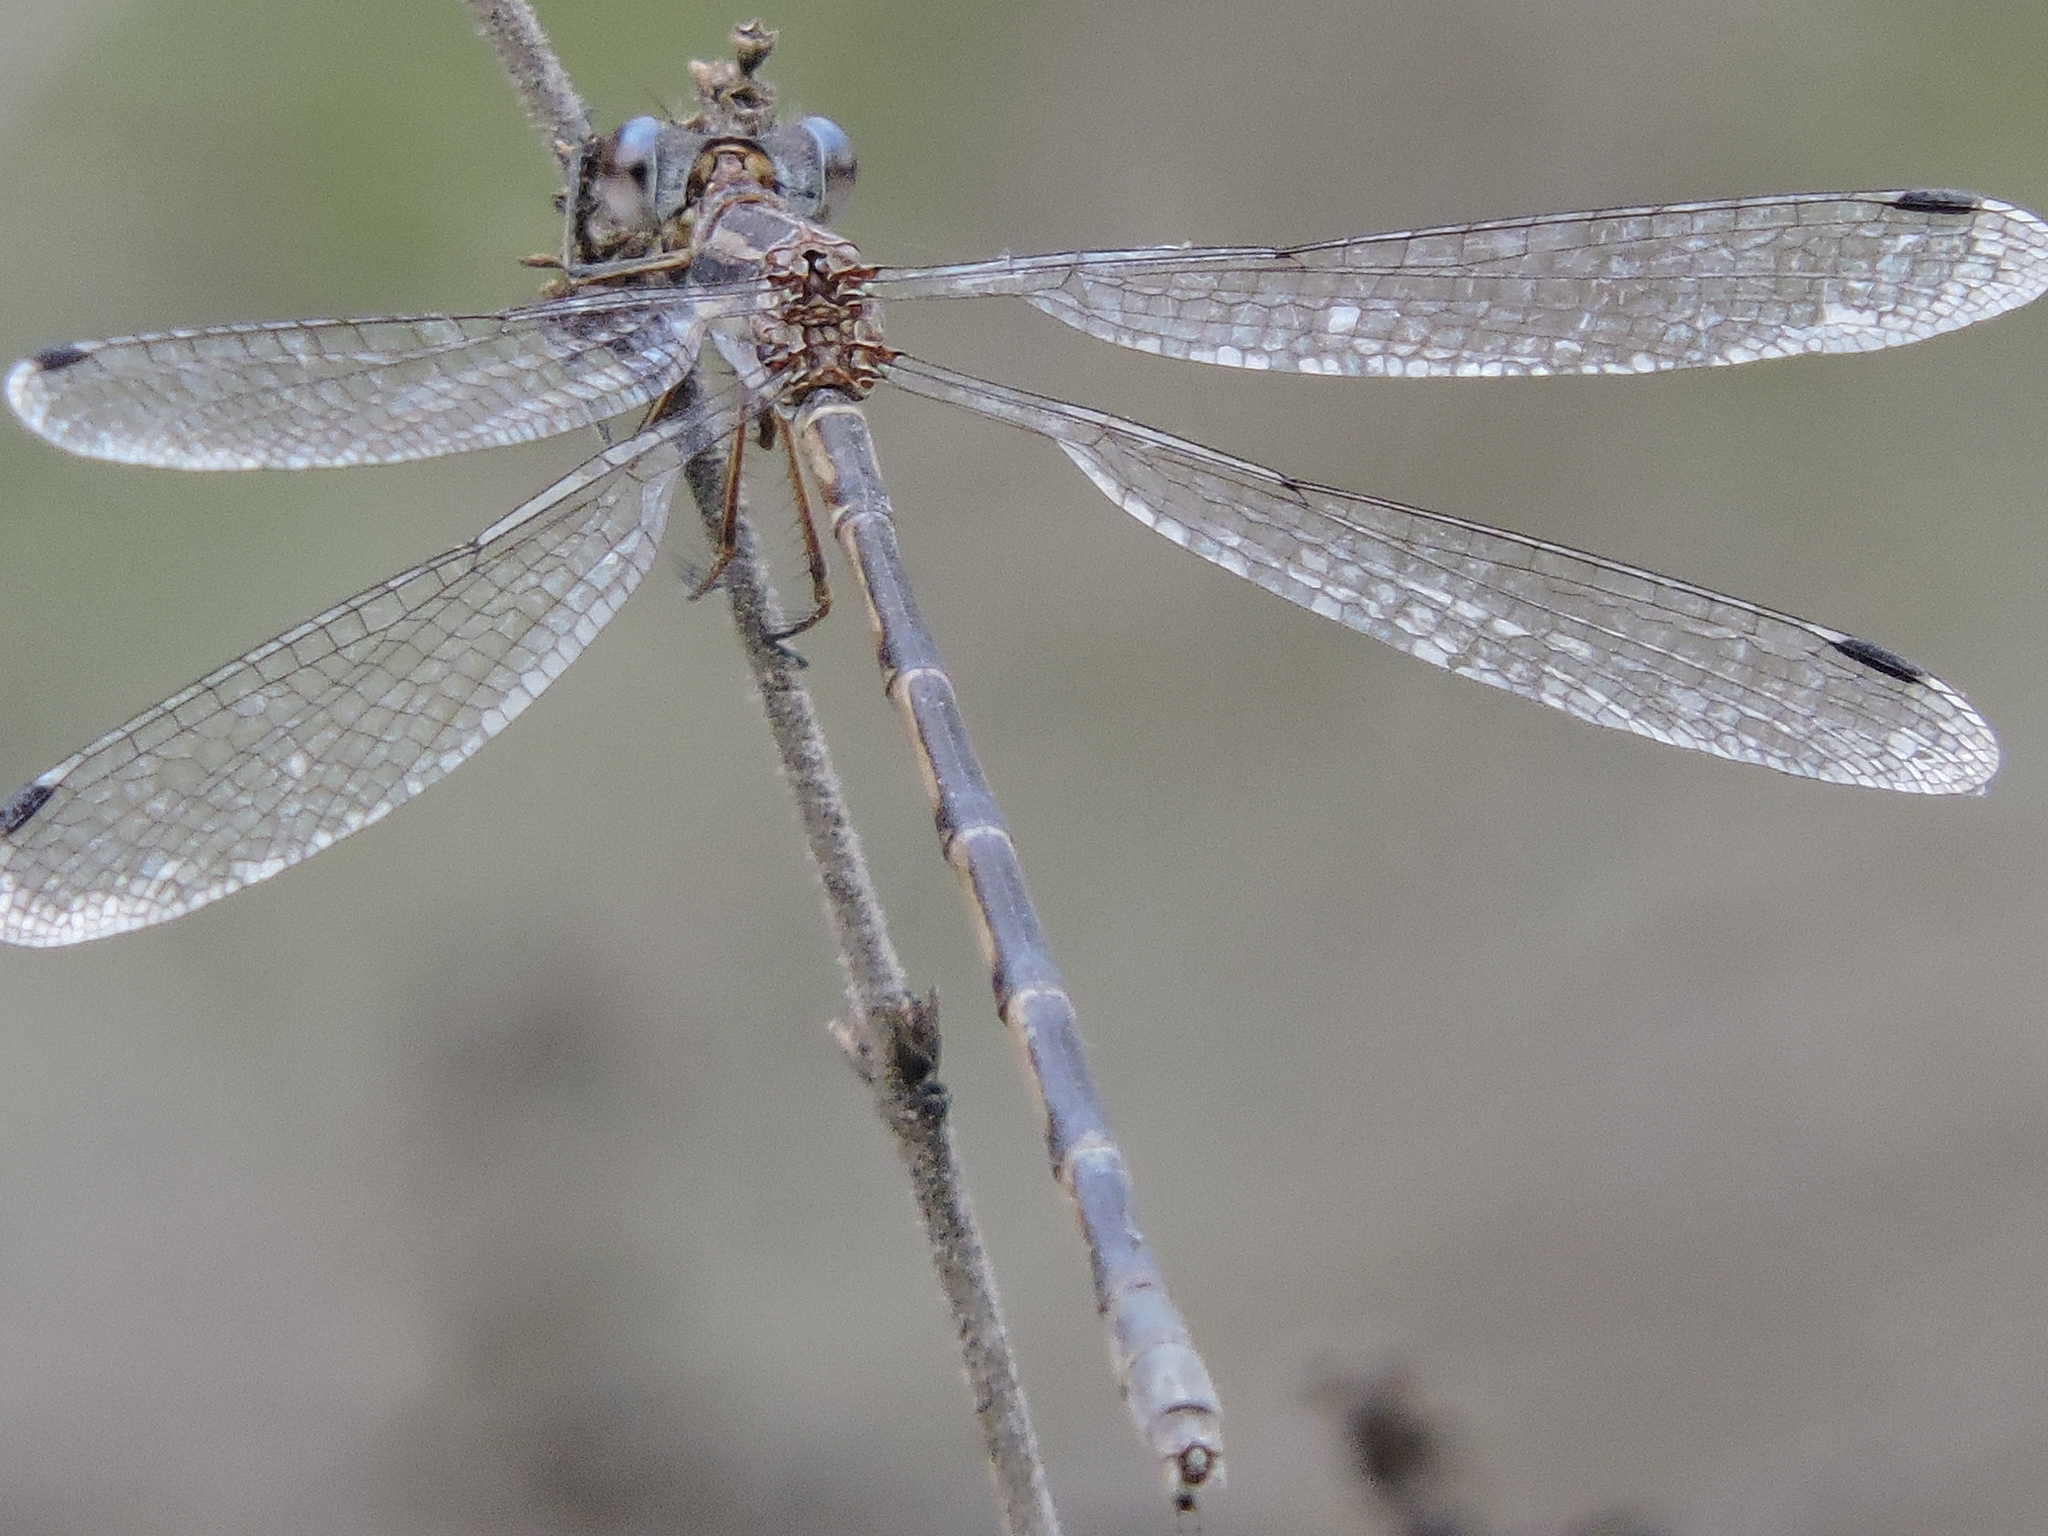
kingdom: Animalia
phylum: Arthropoda
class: Insecta
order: Odonata
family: Lestidae
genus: Lestes
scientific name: Lestes australis
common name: Southern spreadwing
